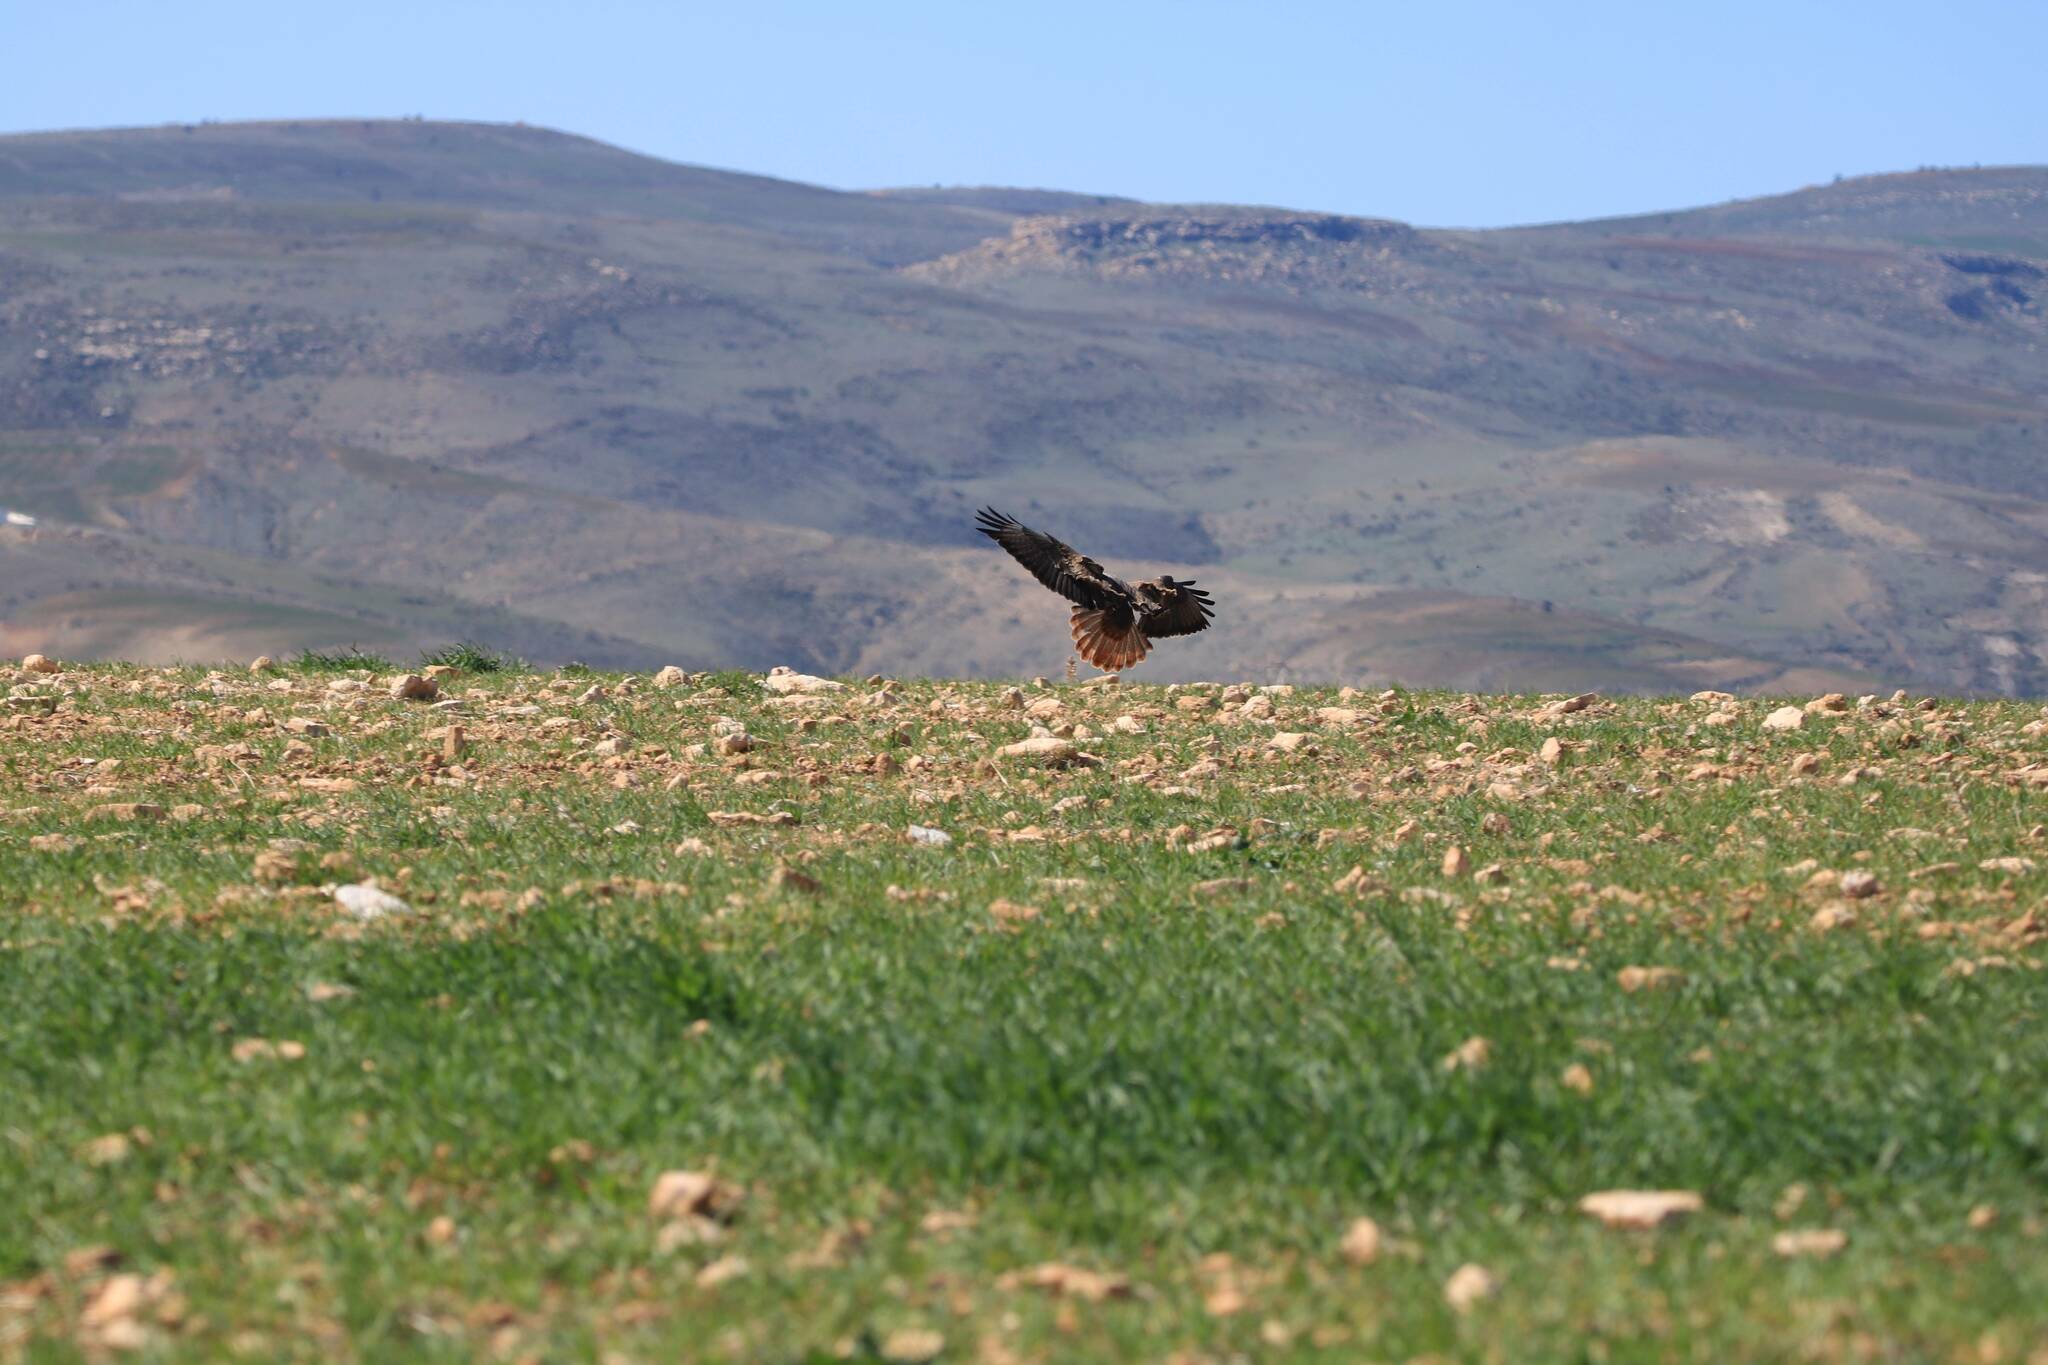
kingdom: Animalia
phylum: Chordata
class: Aves
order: Accipitriformes
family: Accipitridae
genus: Buteo
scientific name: Buteo rufinus
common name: Long-legged buzzard
